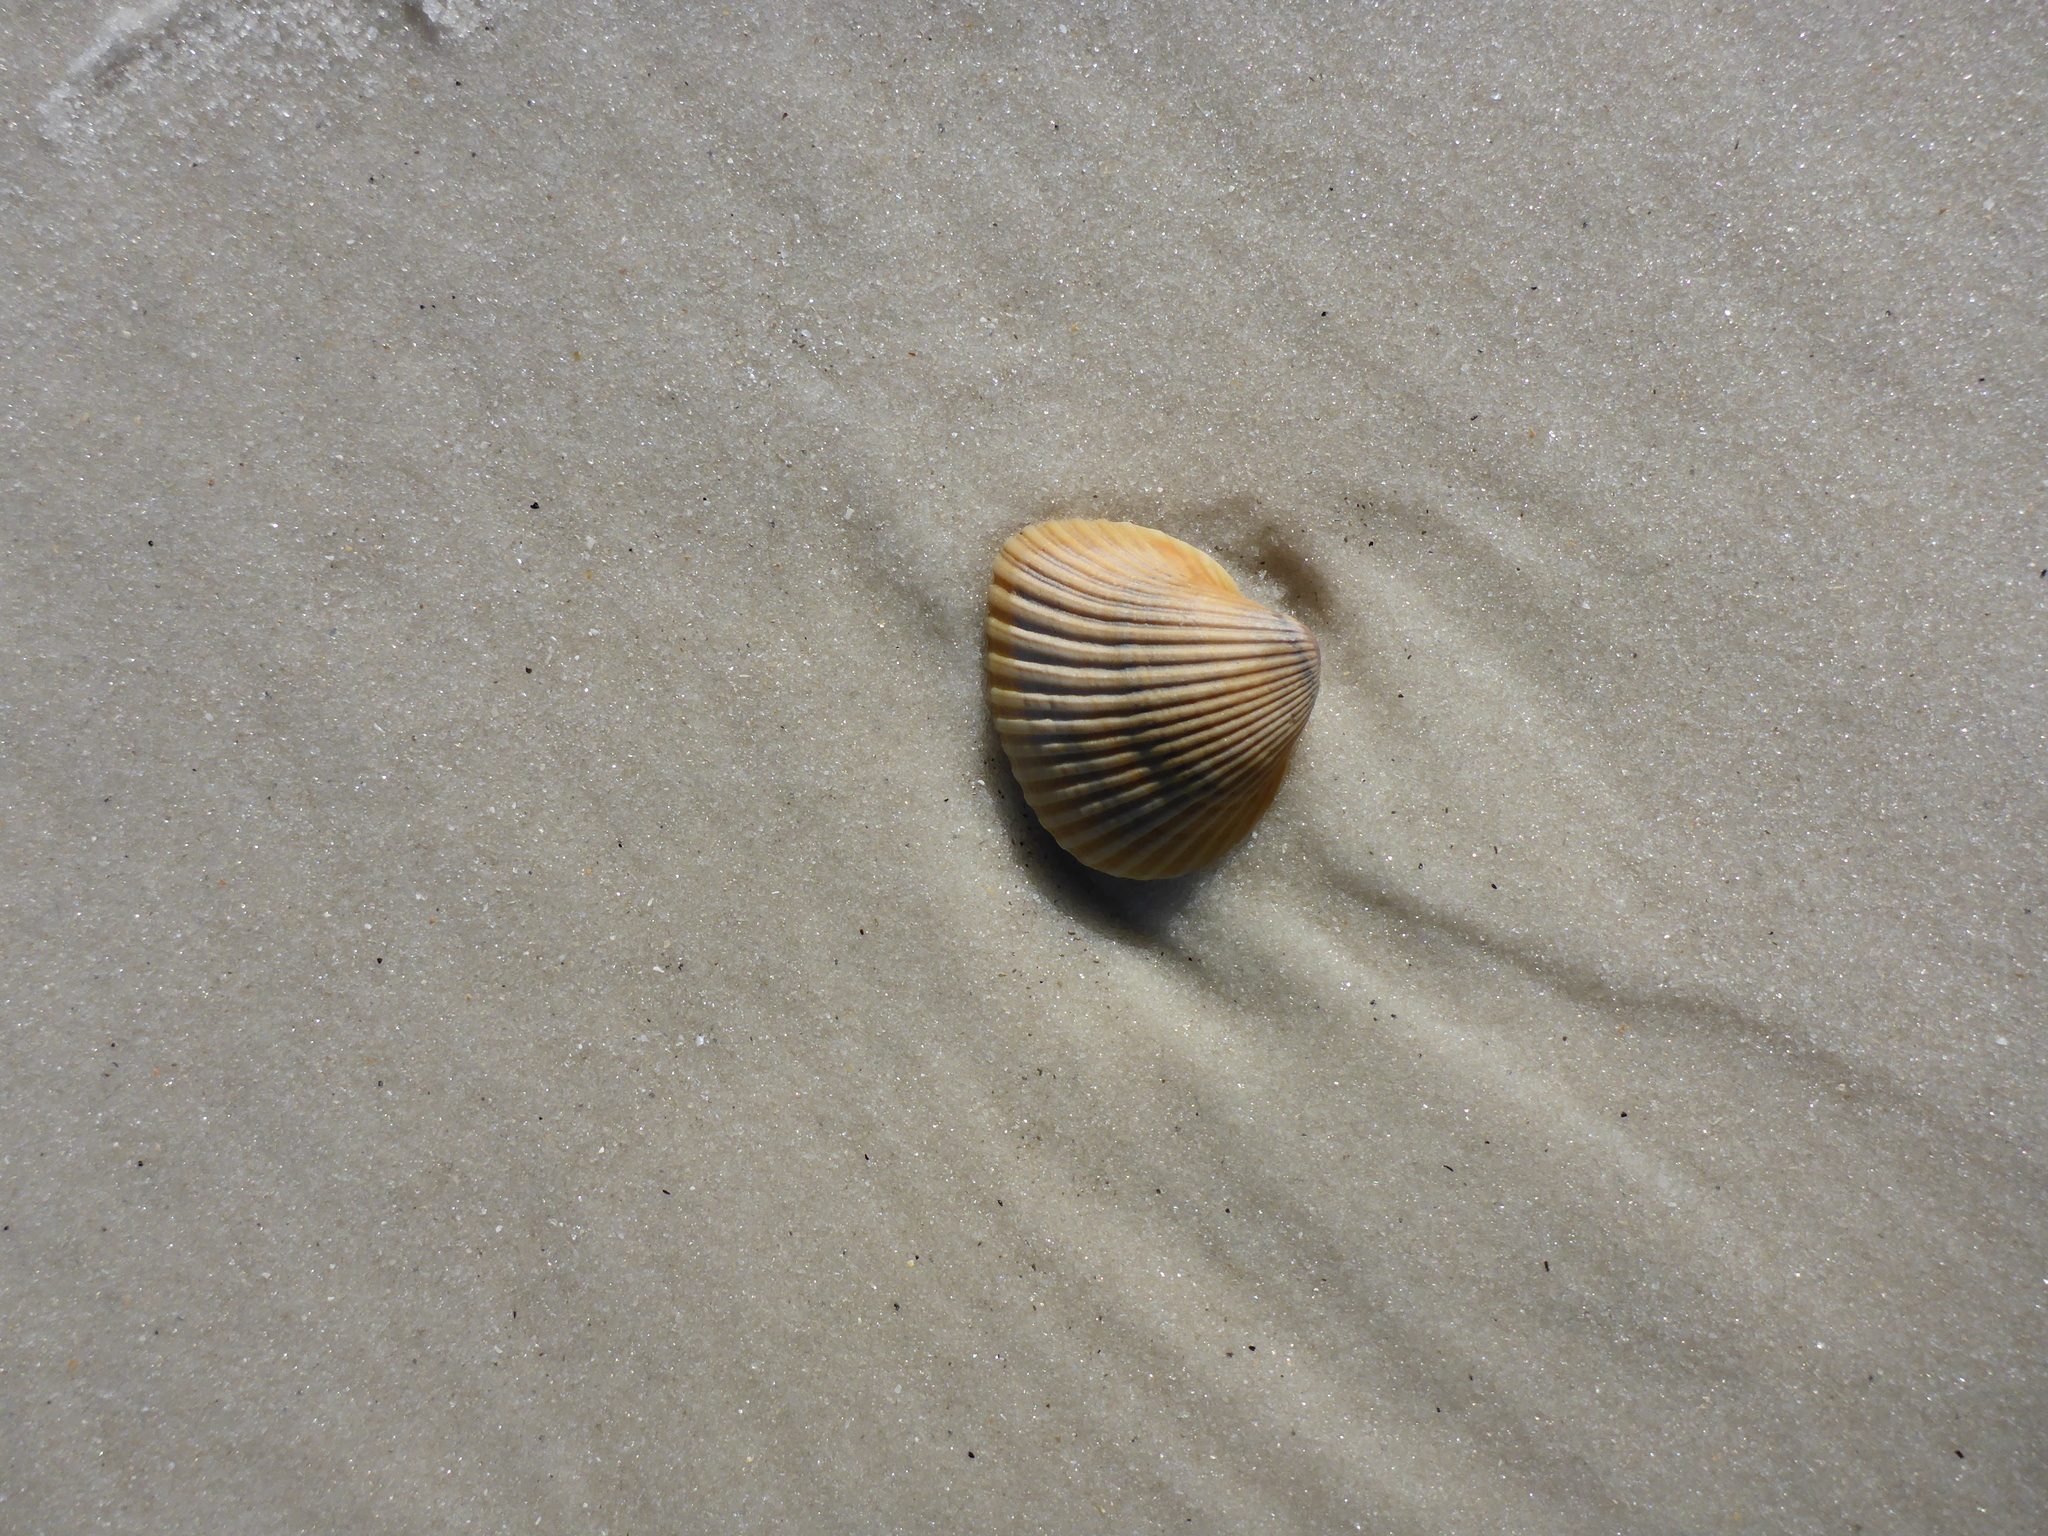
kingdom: Animalia
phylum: Mollusca
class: Bivalvia
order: Arcida
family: Noetiidae
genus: Noetia
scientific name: Noetia ponderosa
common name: Ponderous ark
